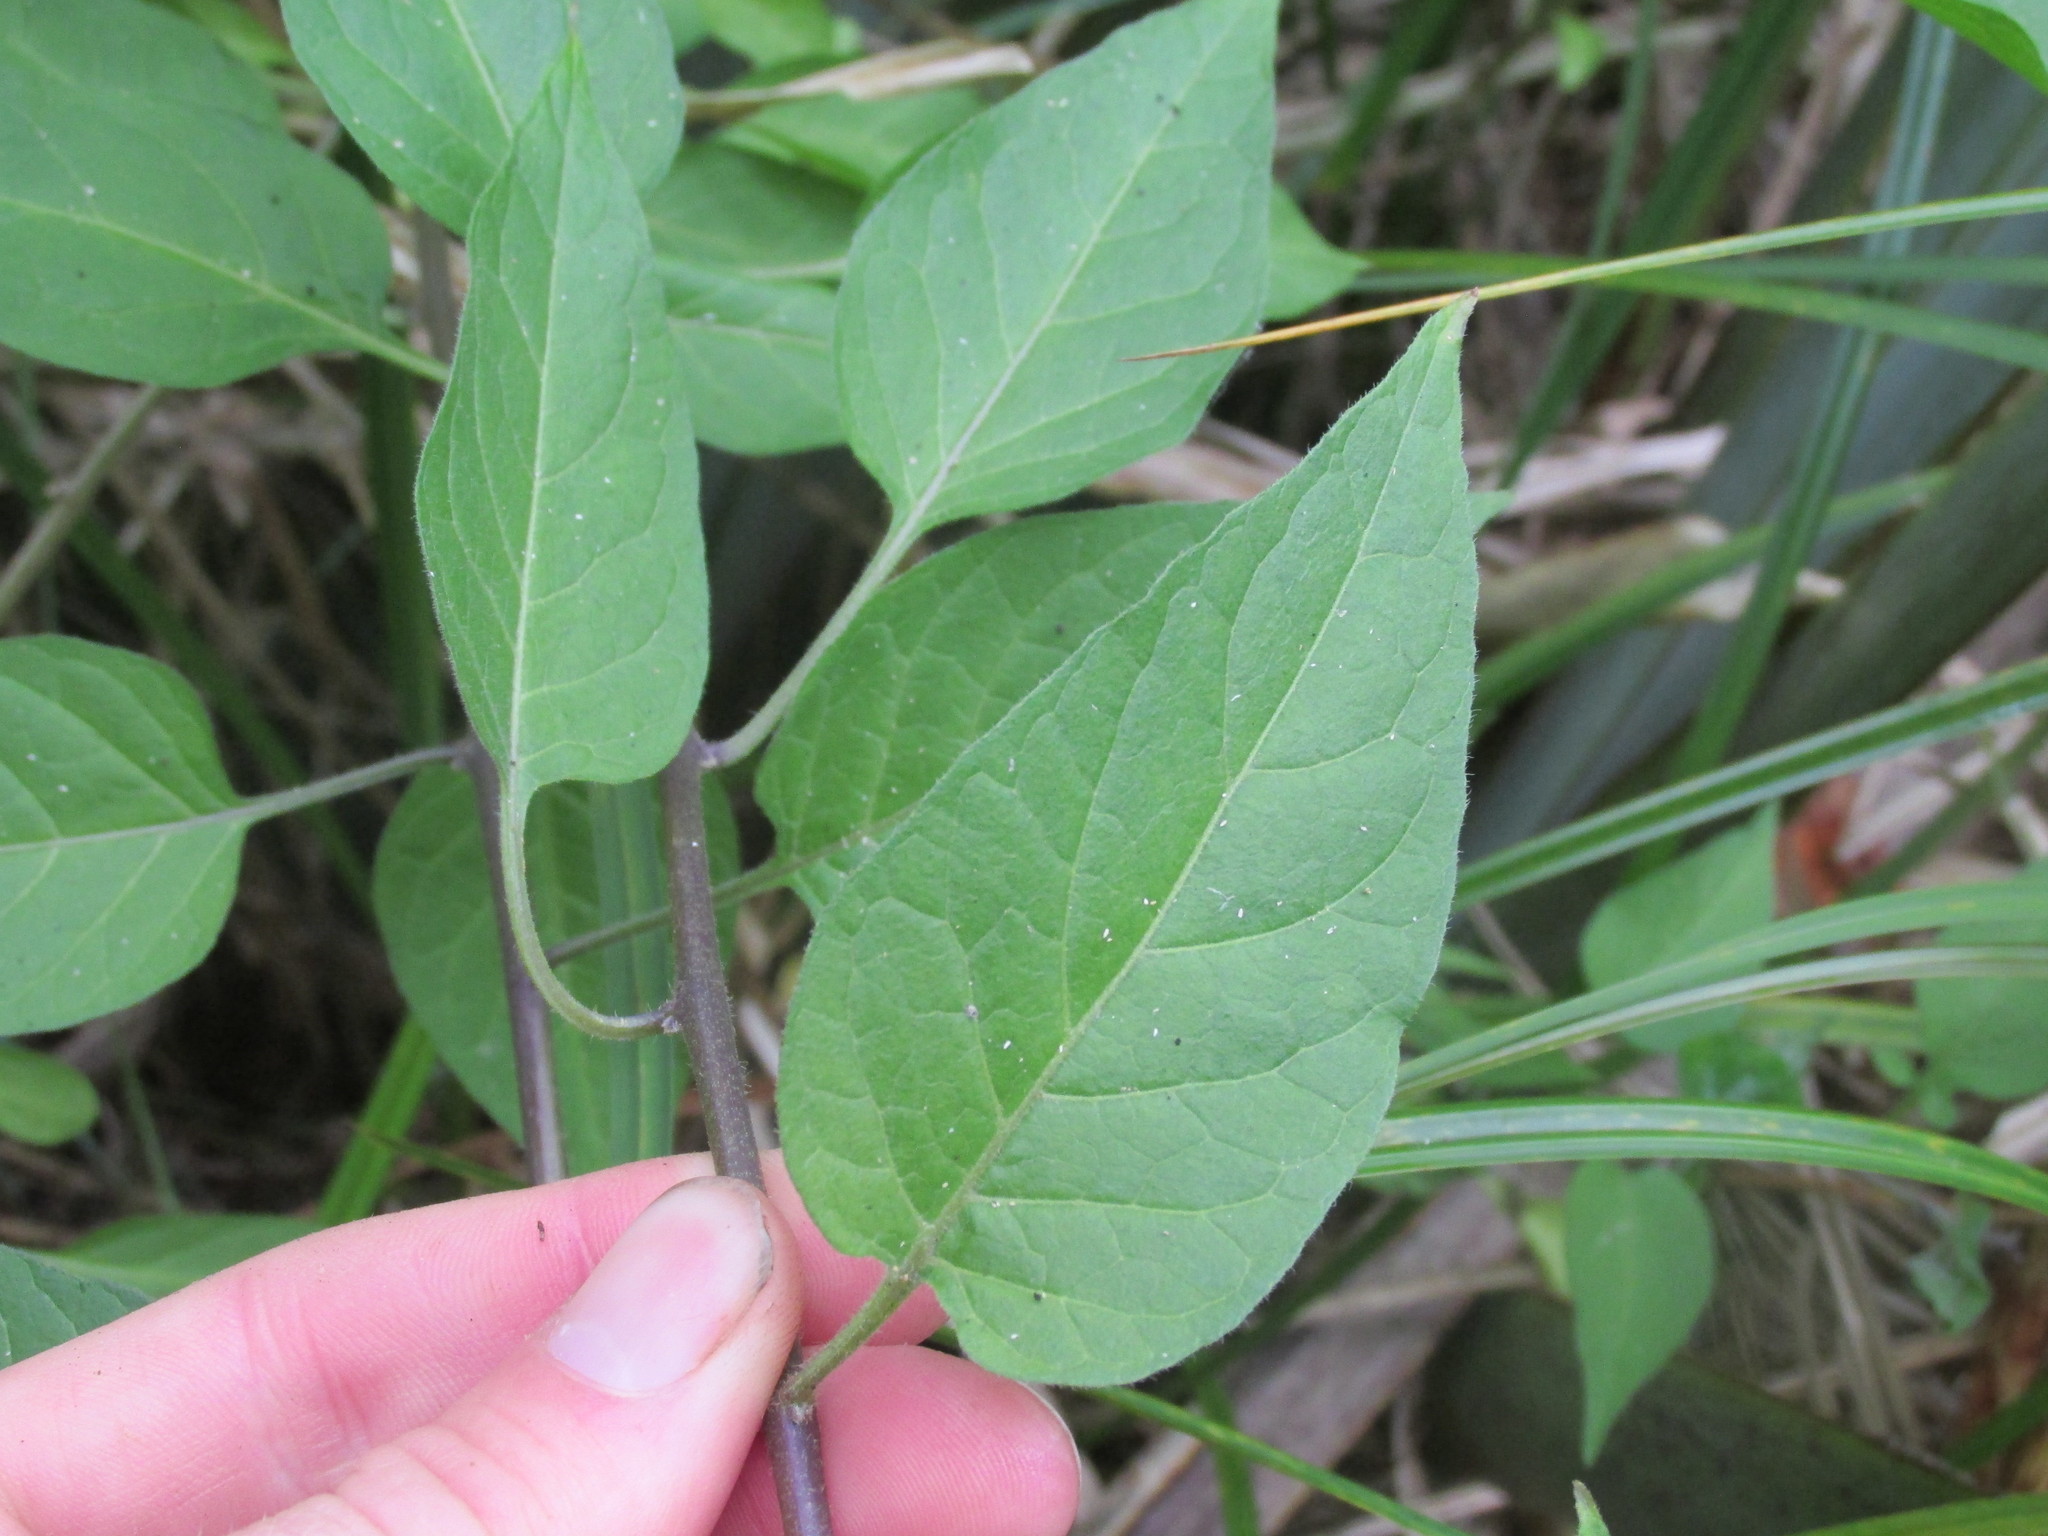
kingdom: Plantae
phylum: Tracheophyta
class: Magnoliopsida
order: Solanales
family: Solanaceae
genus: Solanum
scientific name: Solanum dulcamara
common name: Climbing nightshade
